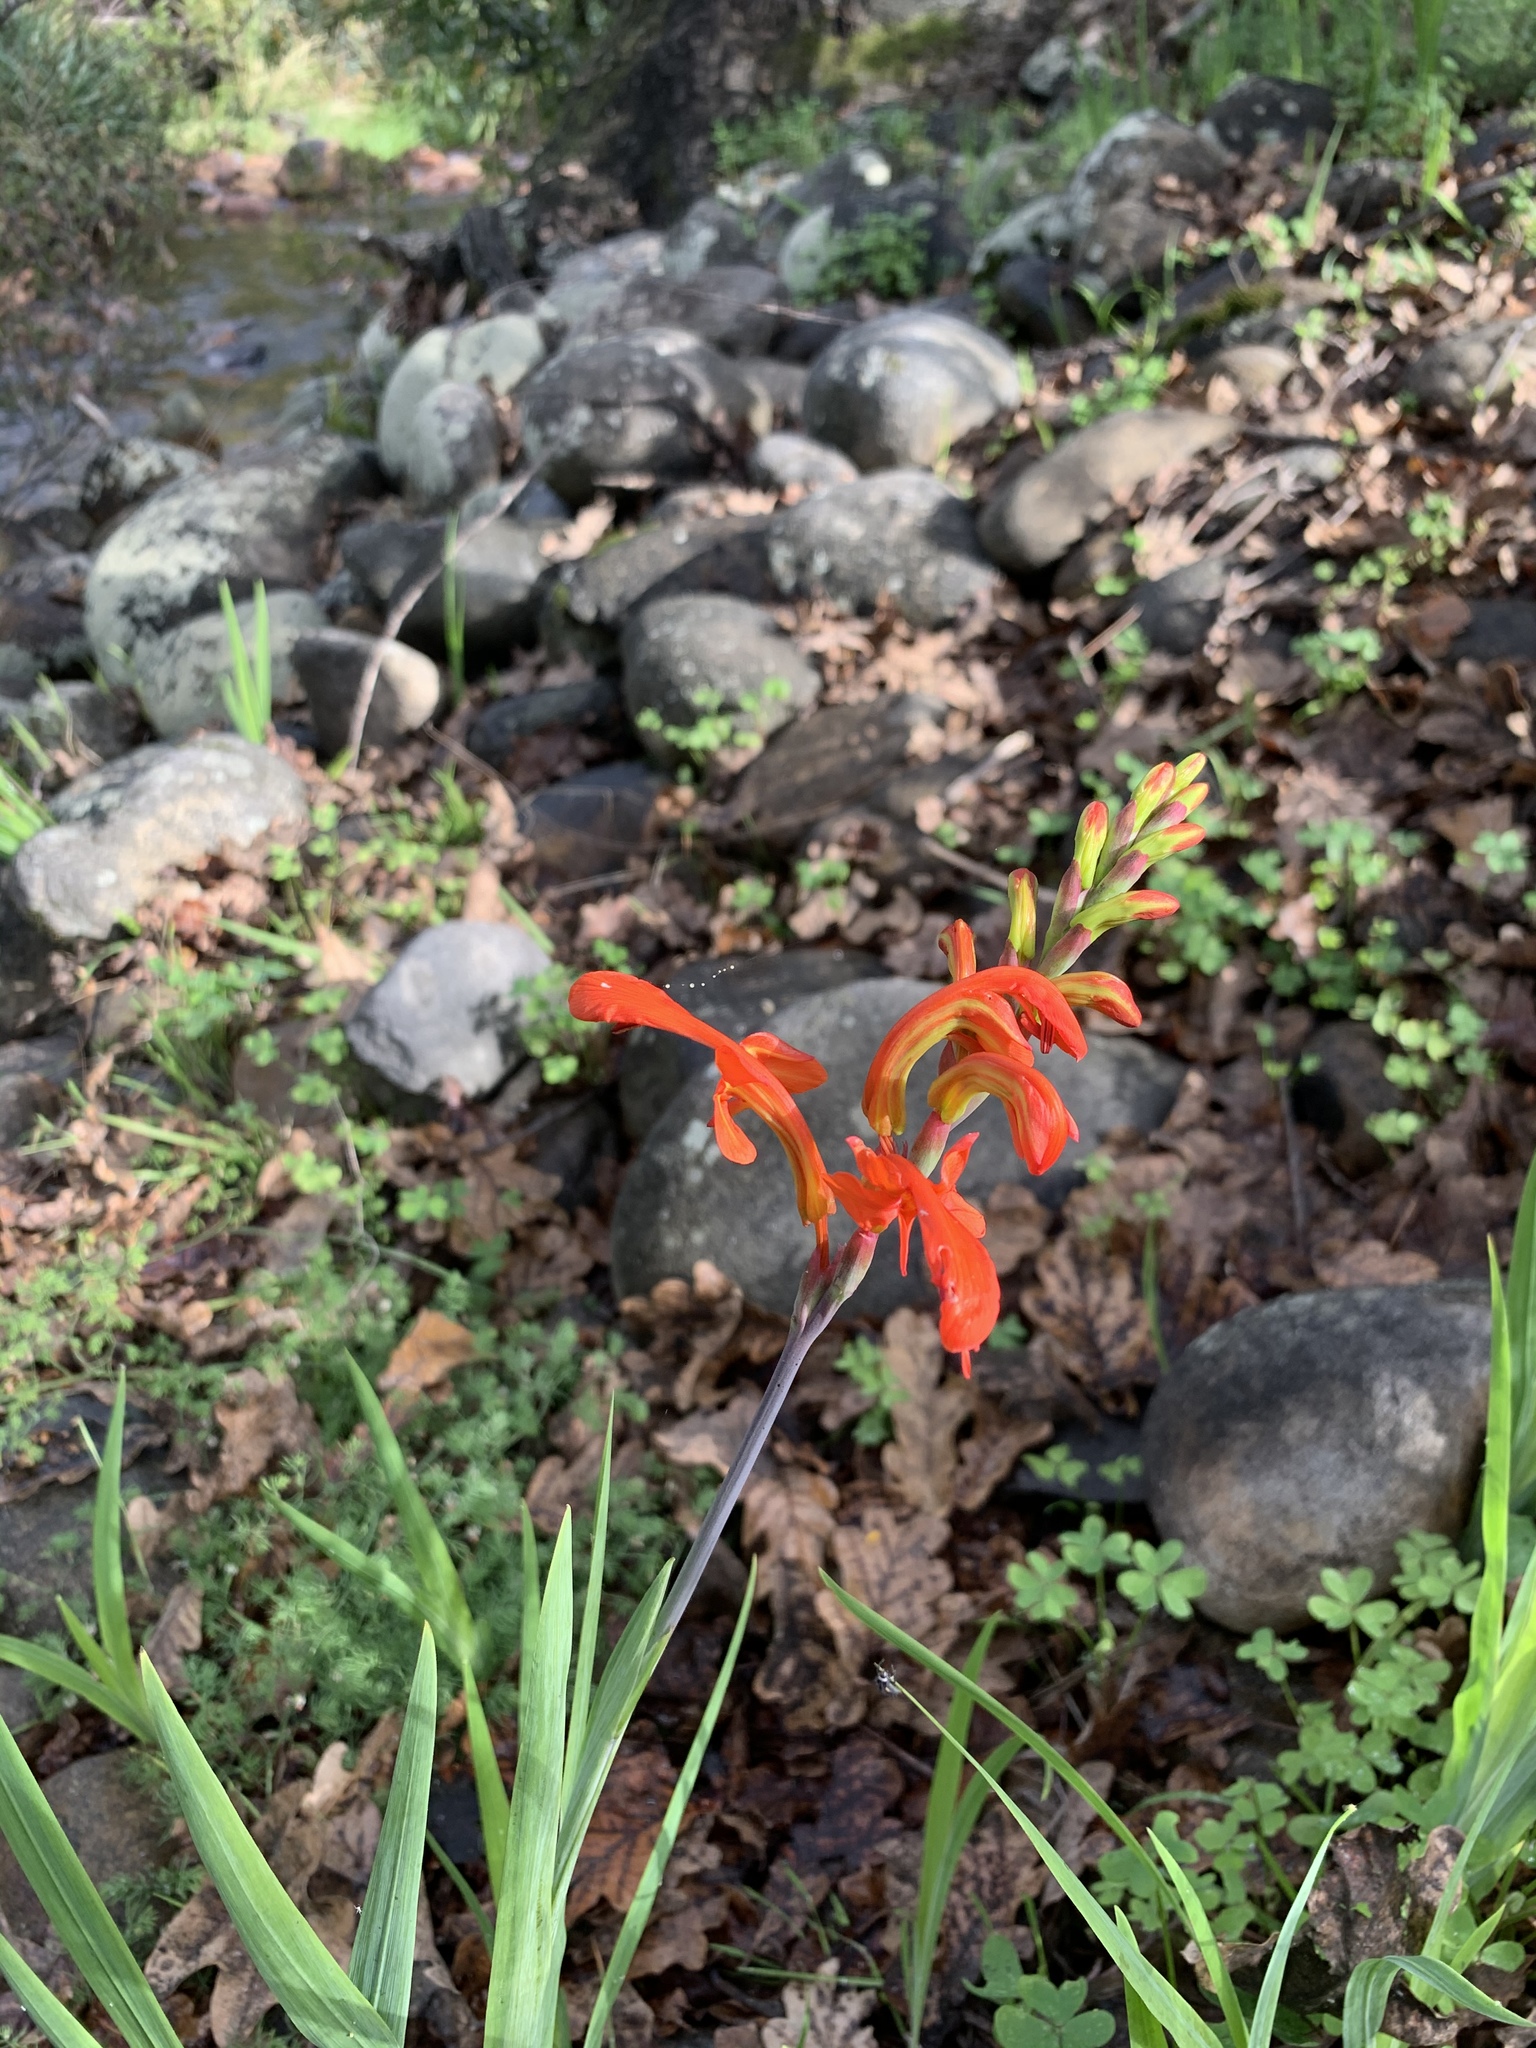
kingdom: Plantae
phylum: Tracheophyta
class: Liliopsida
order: Asparagales
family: Iridaceae
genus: Chasmanthe
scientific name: Chasmanthe aethiopica
